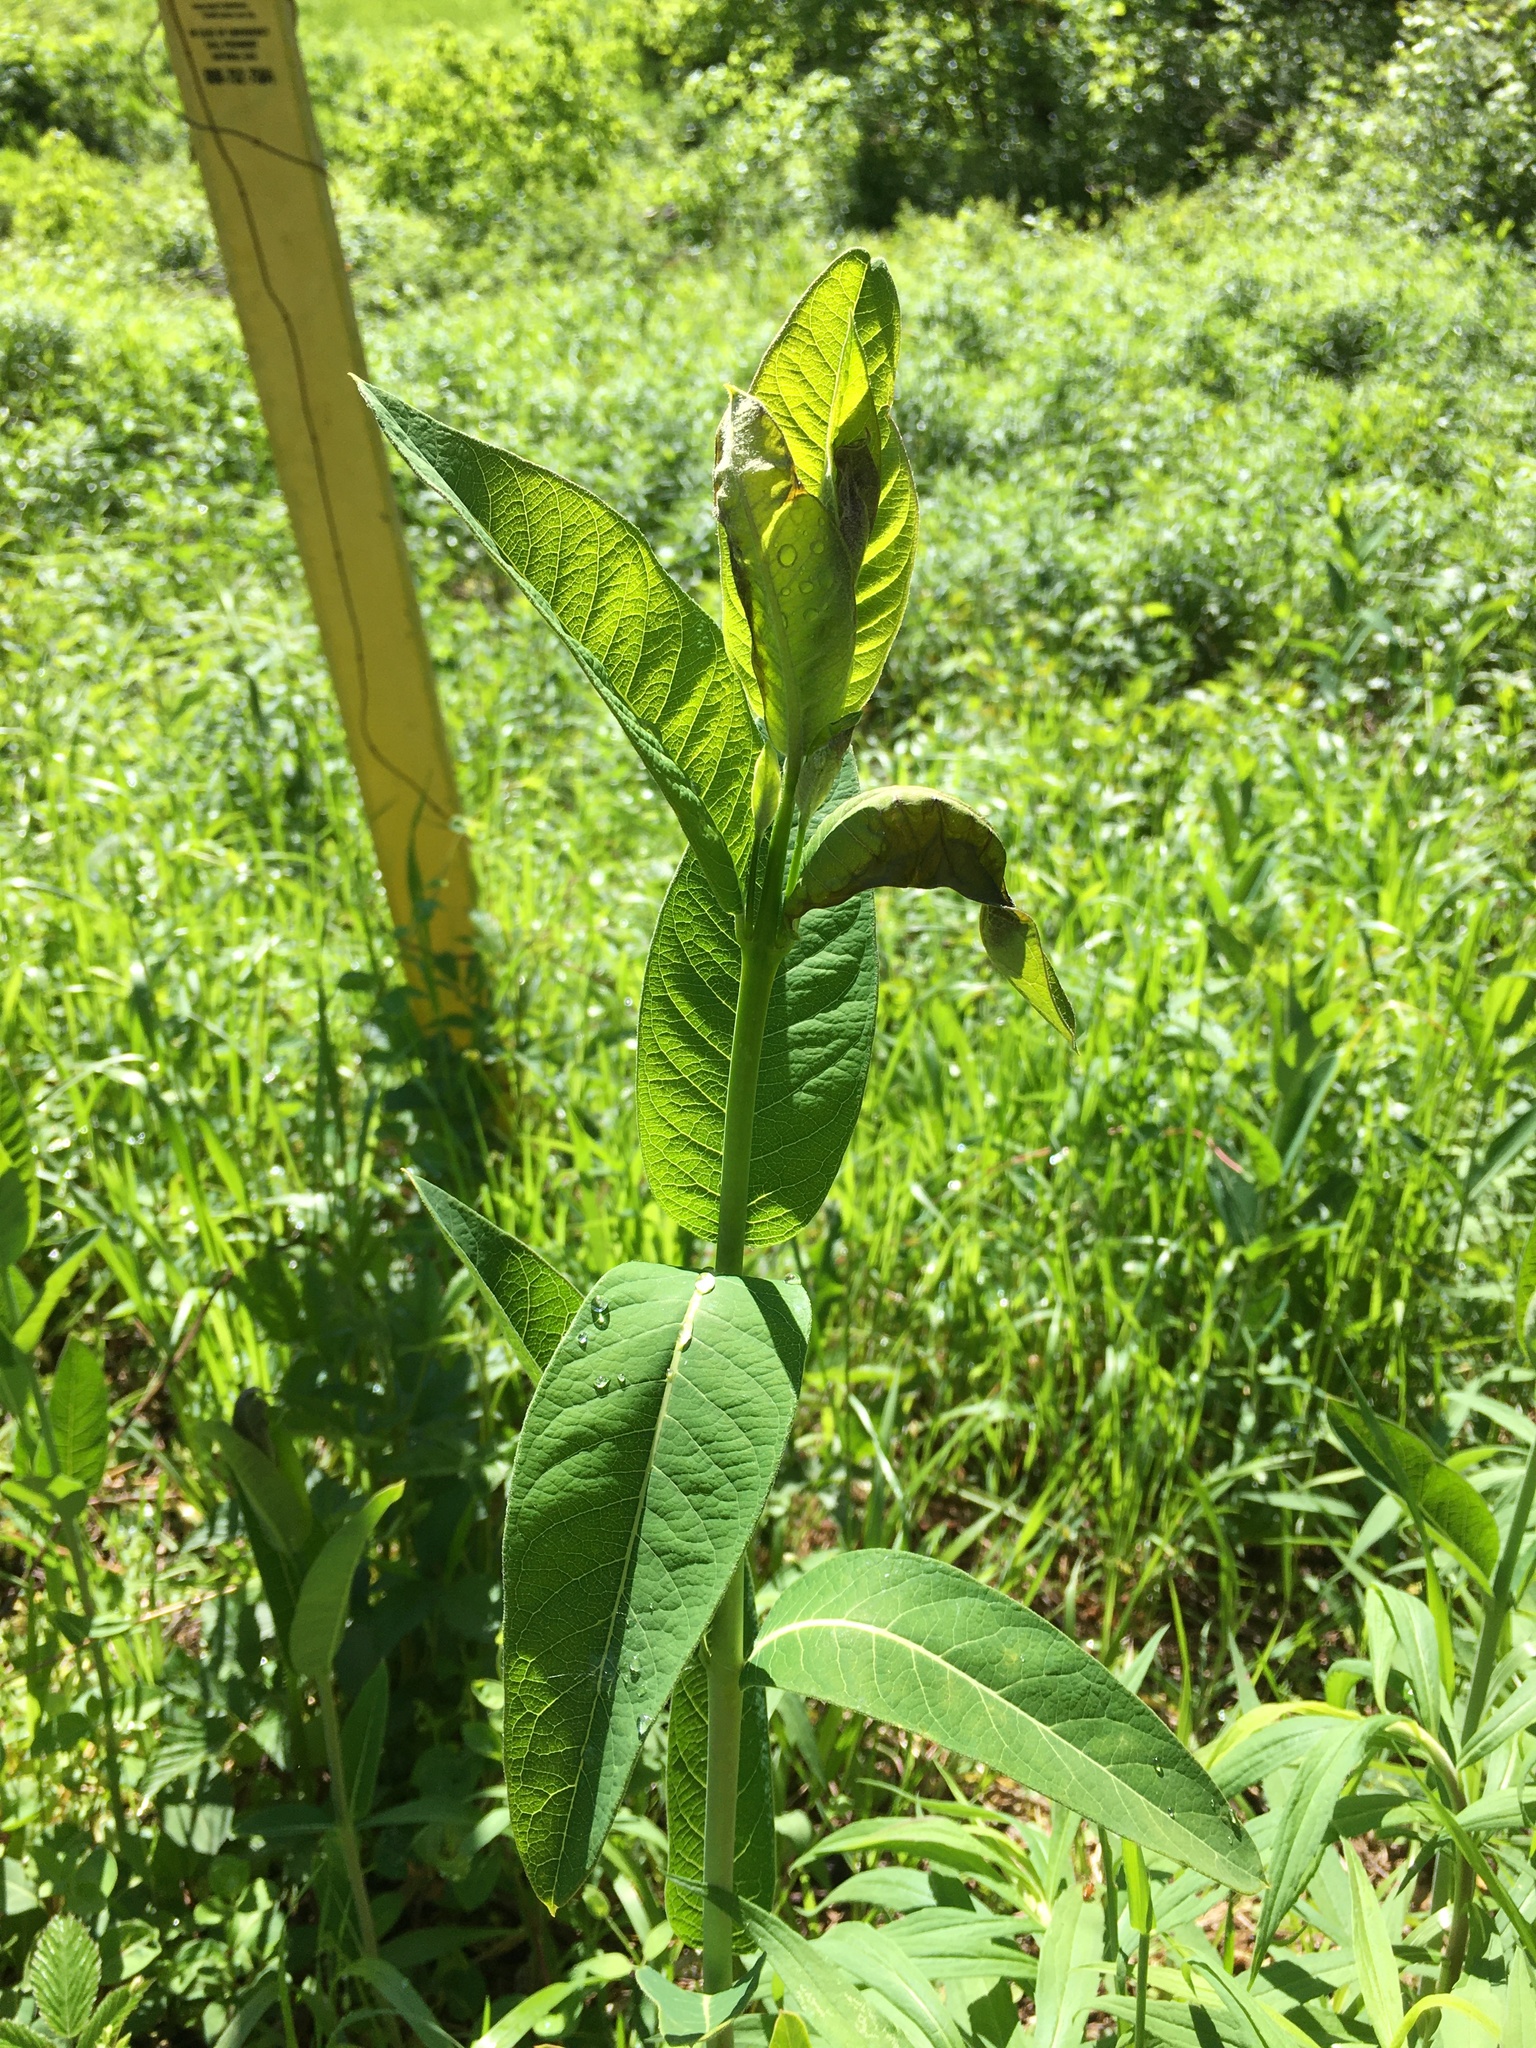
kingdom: Plantae
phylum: Tracheophyta
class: Magnoliopsida
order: Gentianales
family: Apocynaceae
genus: Apocynum
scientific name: Apocynum cannabinum
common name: Hemp dogbane
